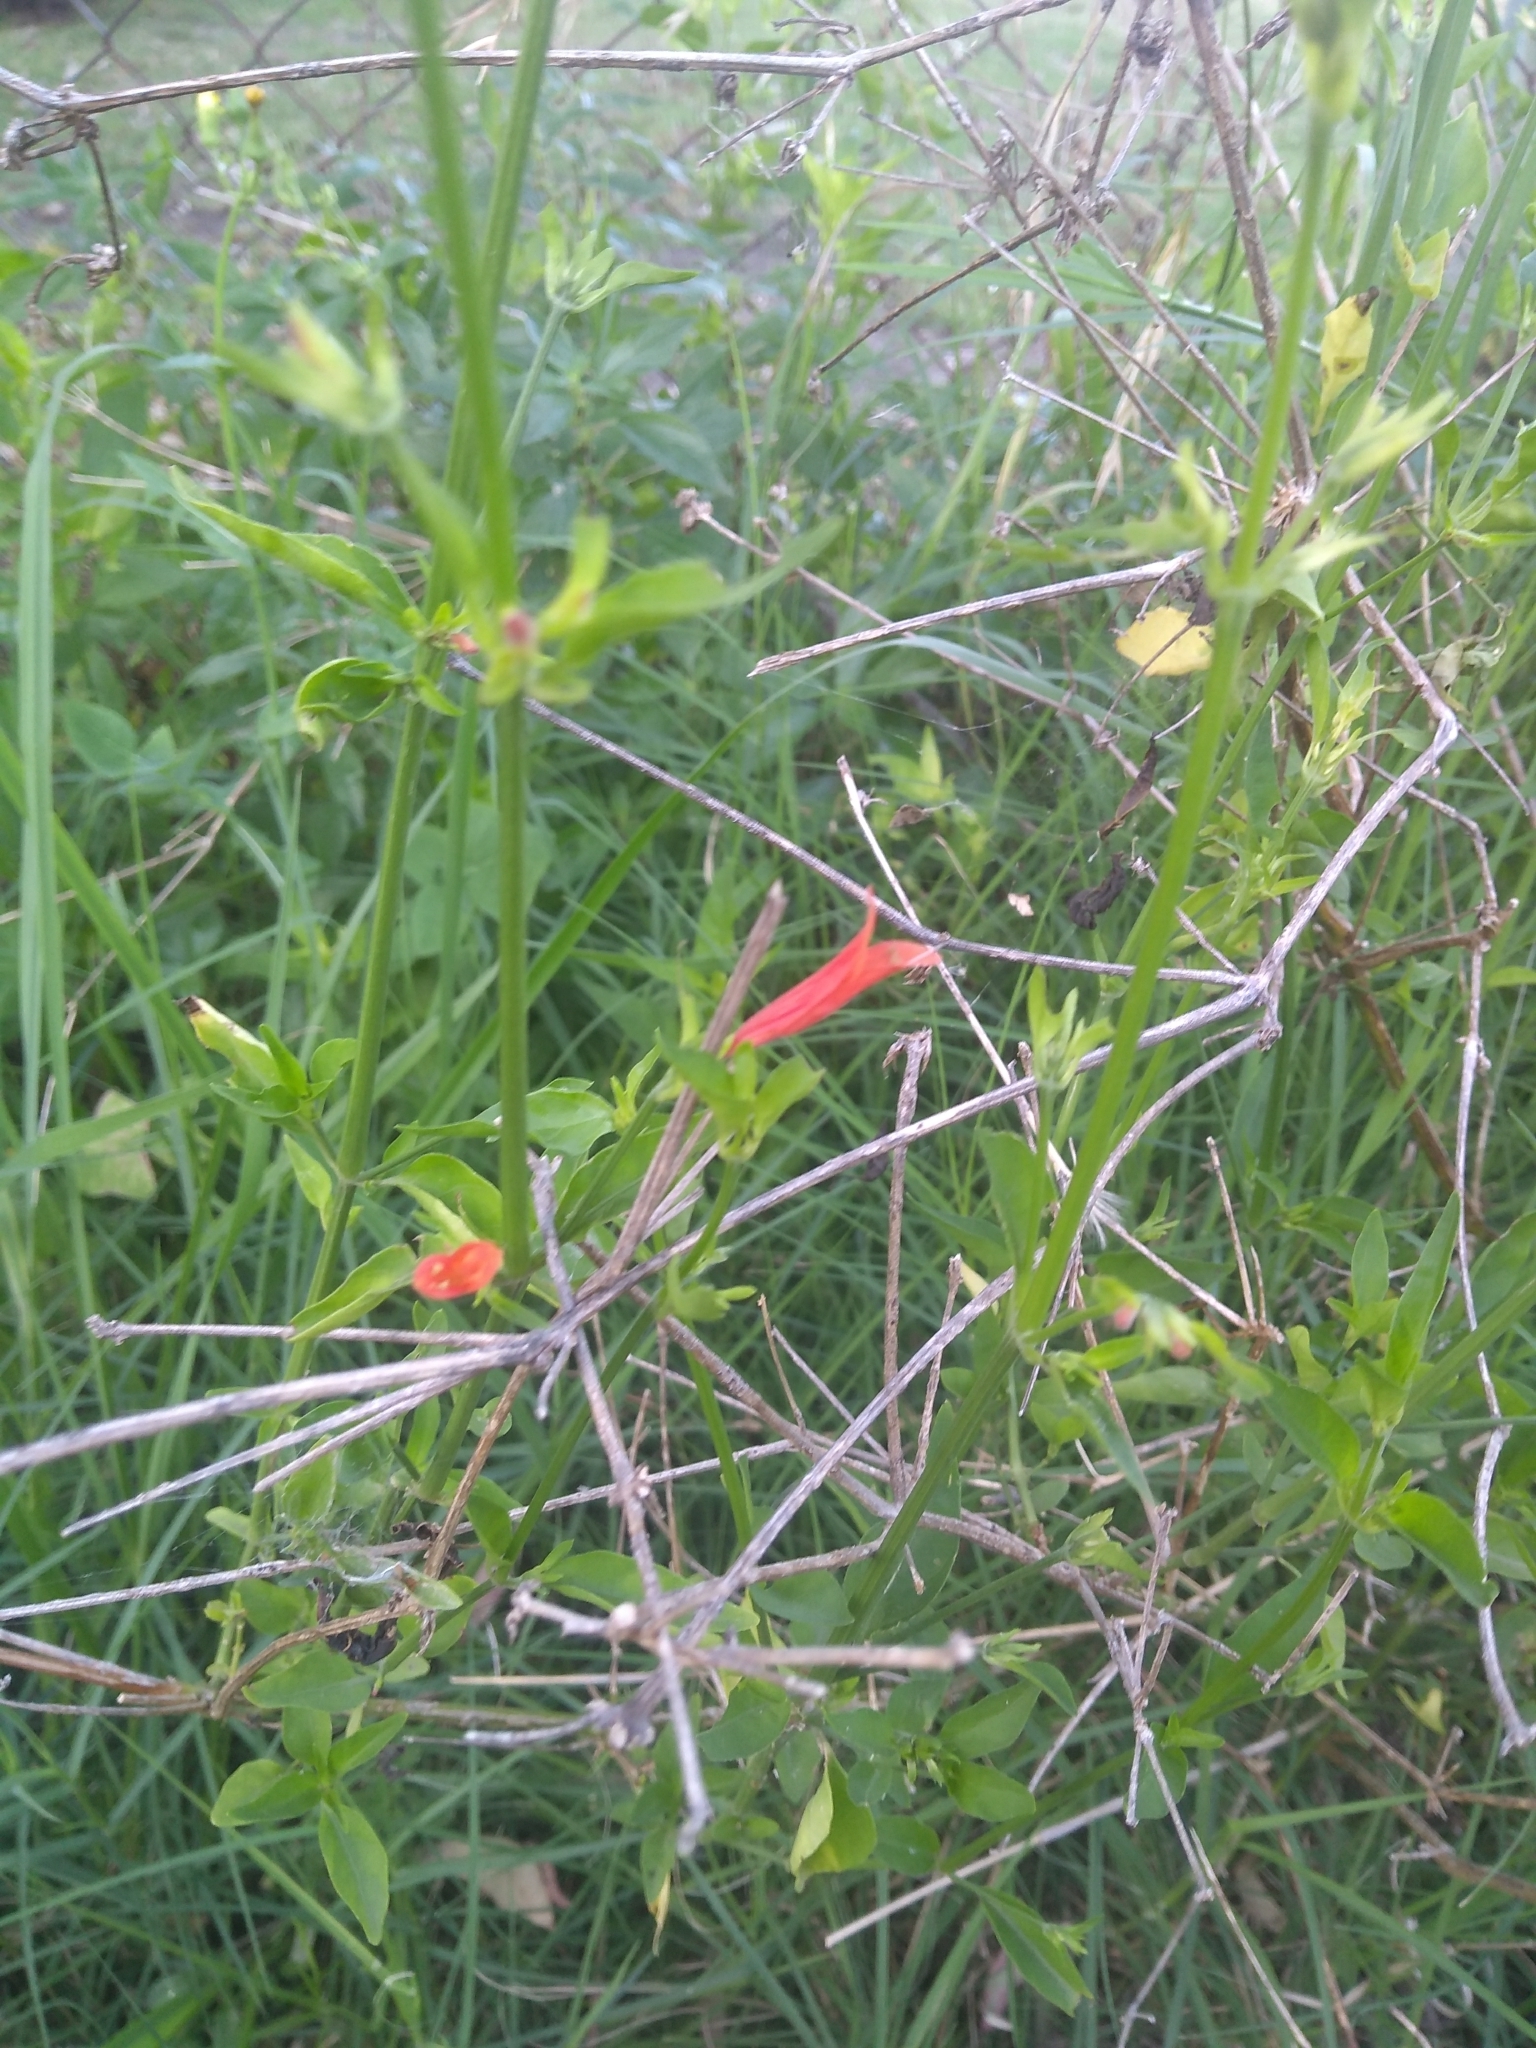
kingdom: Plantae
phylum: Tracheophyta
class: Magnoliopsida
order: Lamiales
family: Acanthaceae
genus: Dicliptera
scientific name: Dicliptera squarrosa
